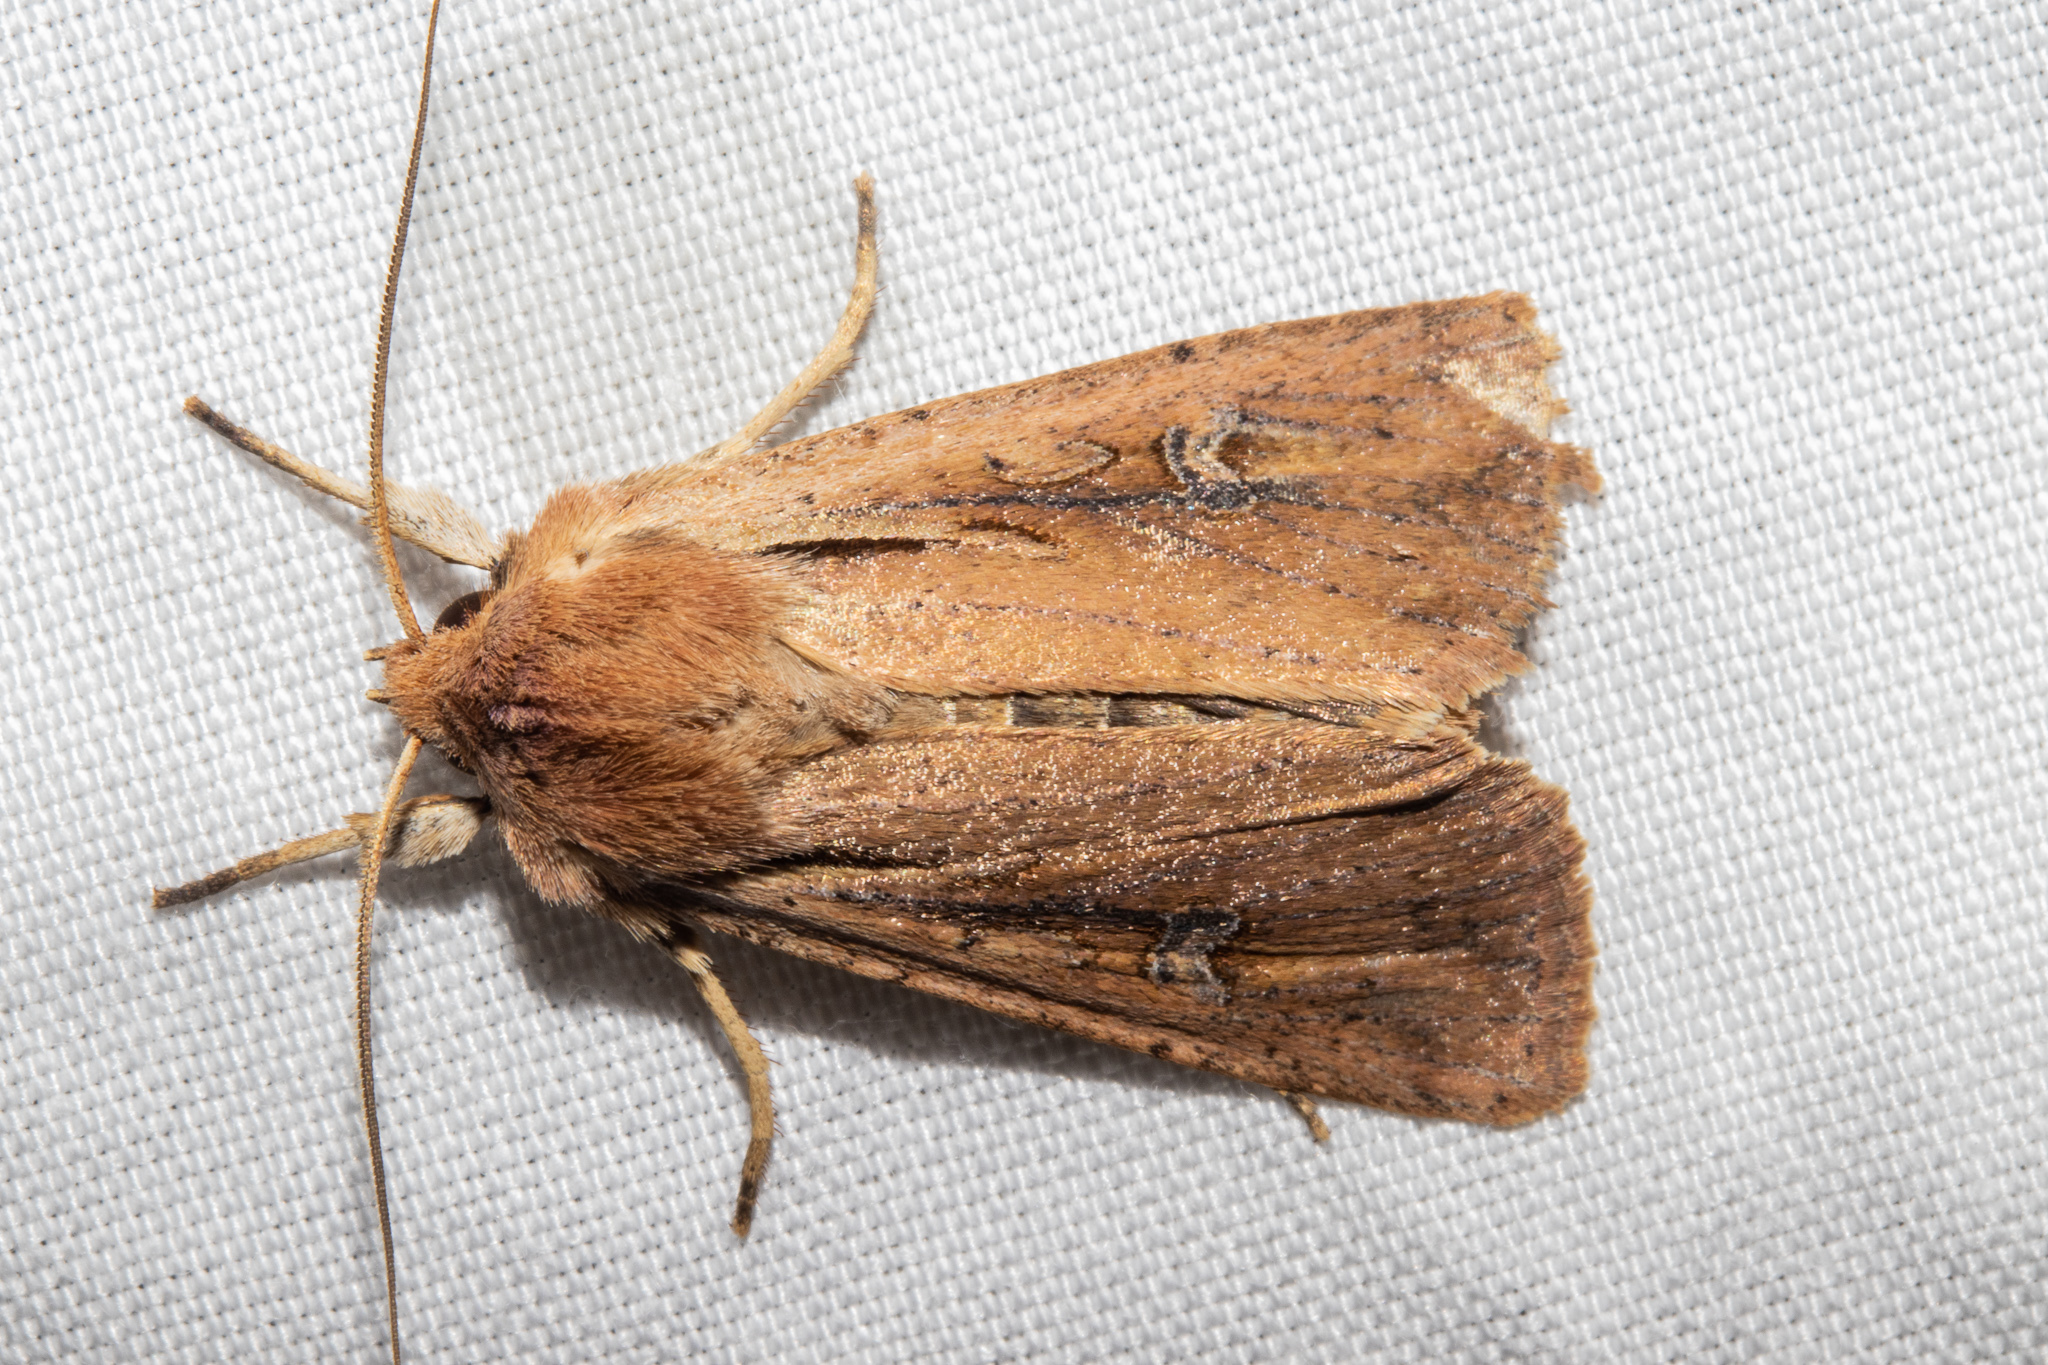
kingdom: Animalia
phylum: Arthropoda
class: Insecta
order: Lepidoptera
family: Noctuidae
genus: Ichneutica
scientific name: Ichneutica atristriga
